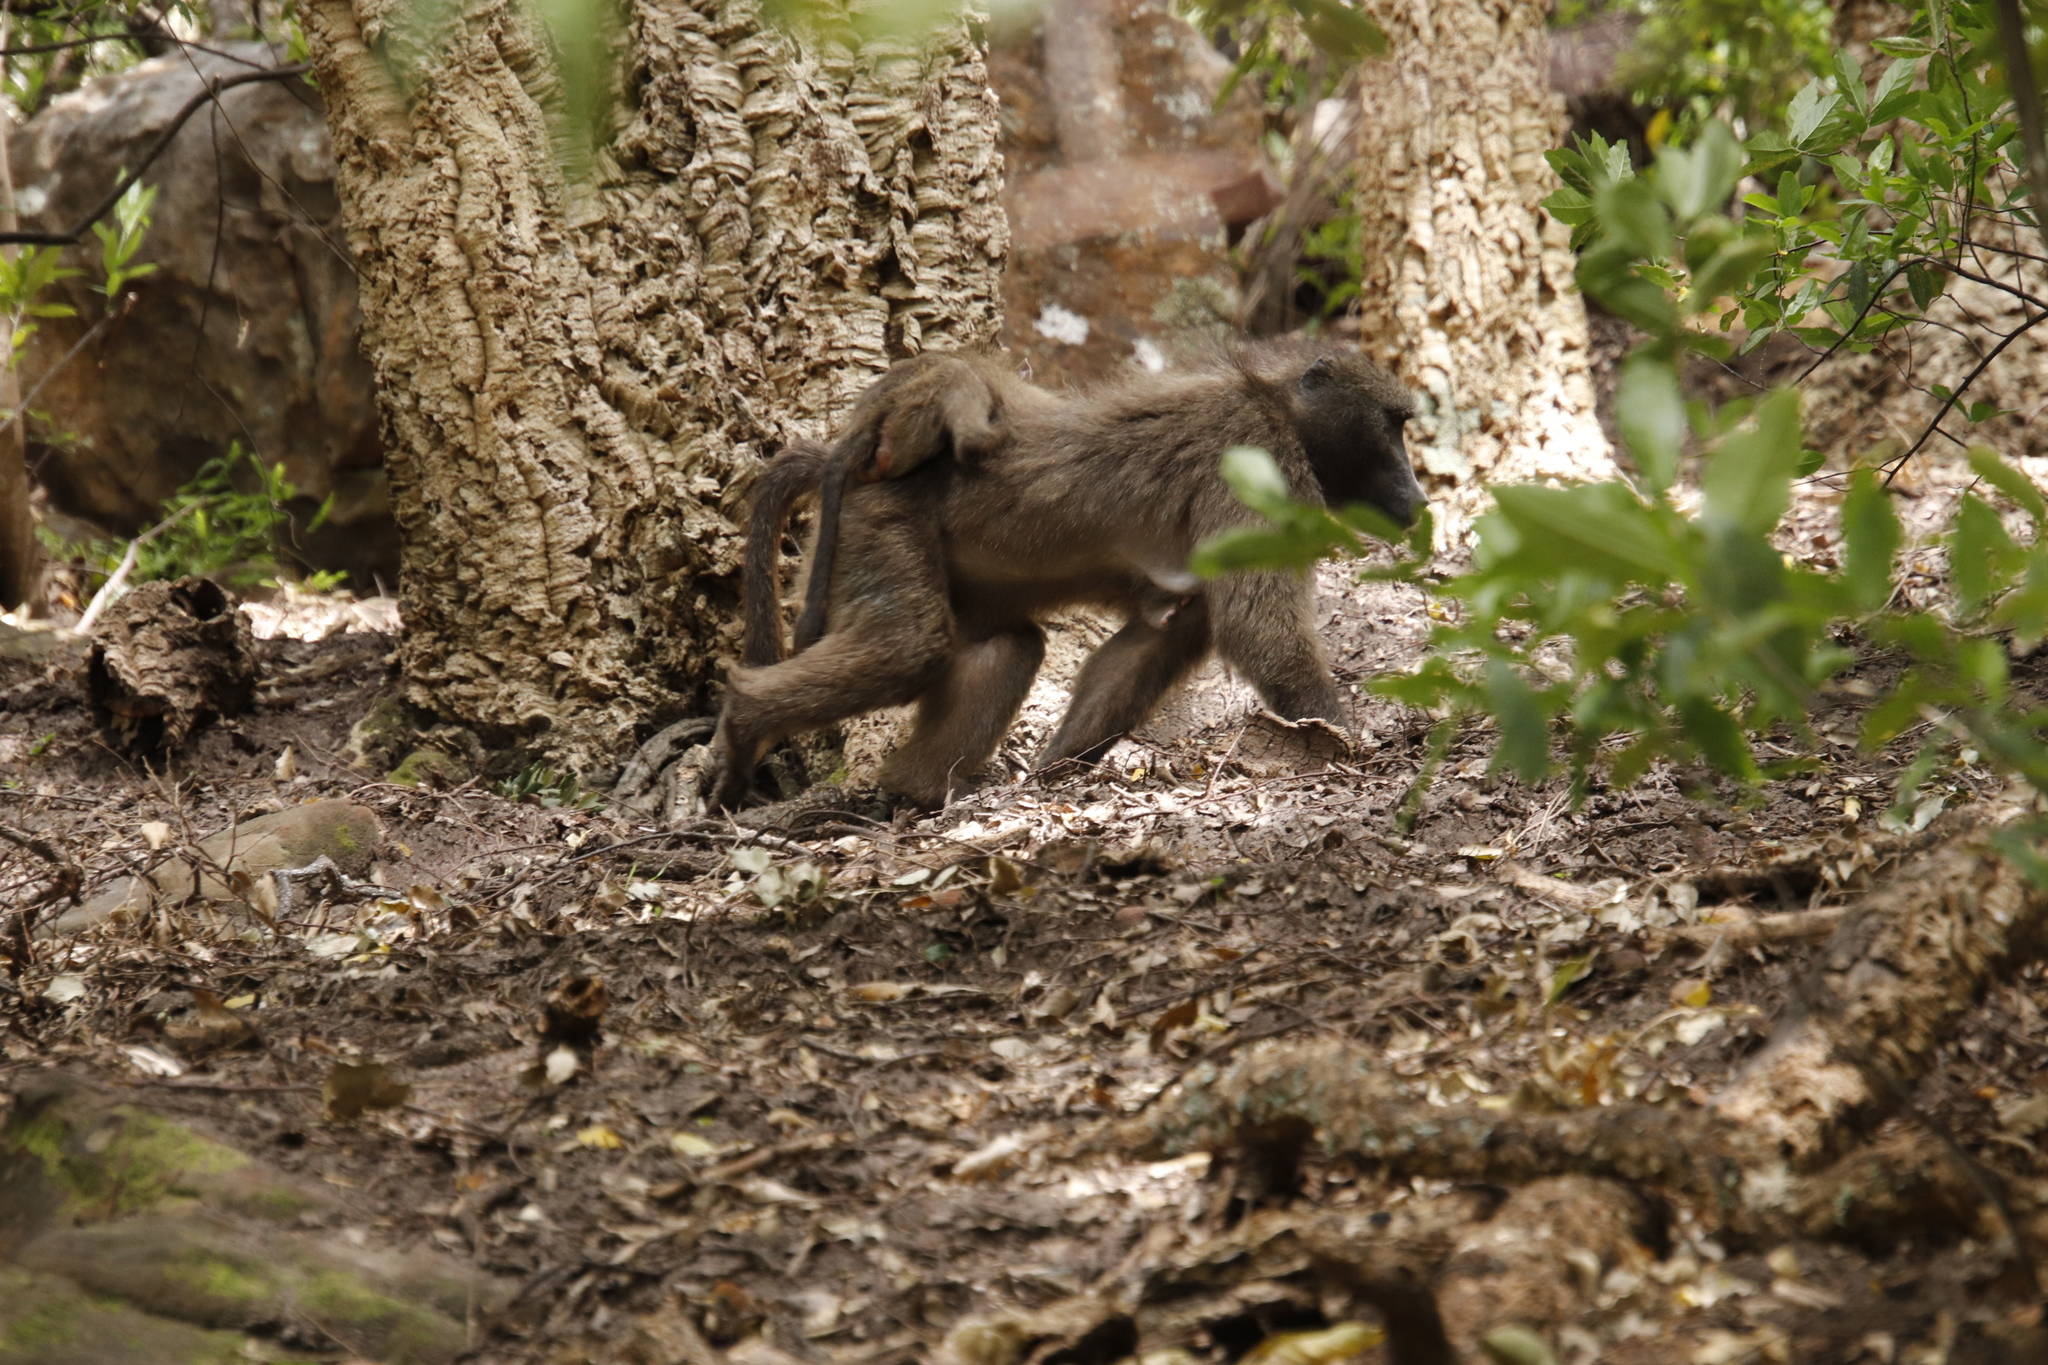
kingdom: Animalia
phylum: Chordata
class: Mammalia
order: Primates
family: Cercopithecidae
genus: Papio
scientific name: Papio ursinus
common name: Chacma baboon
